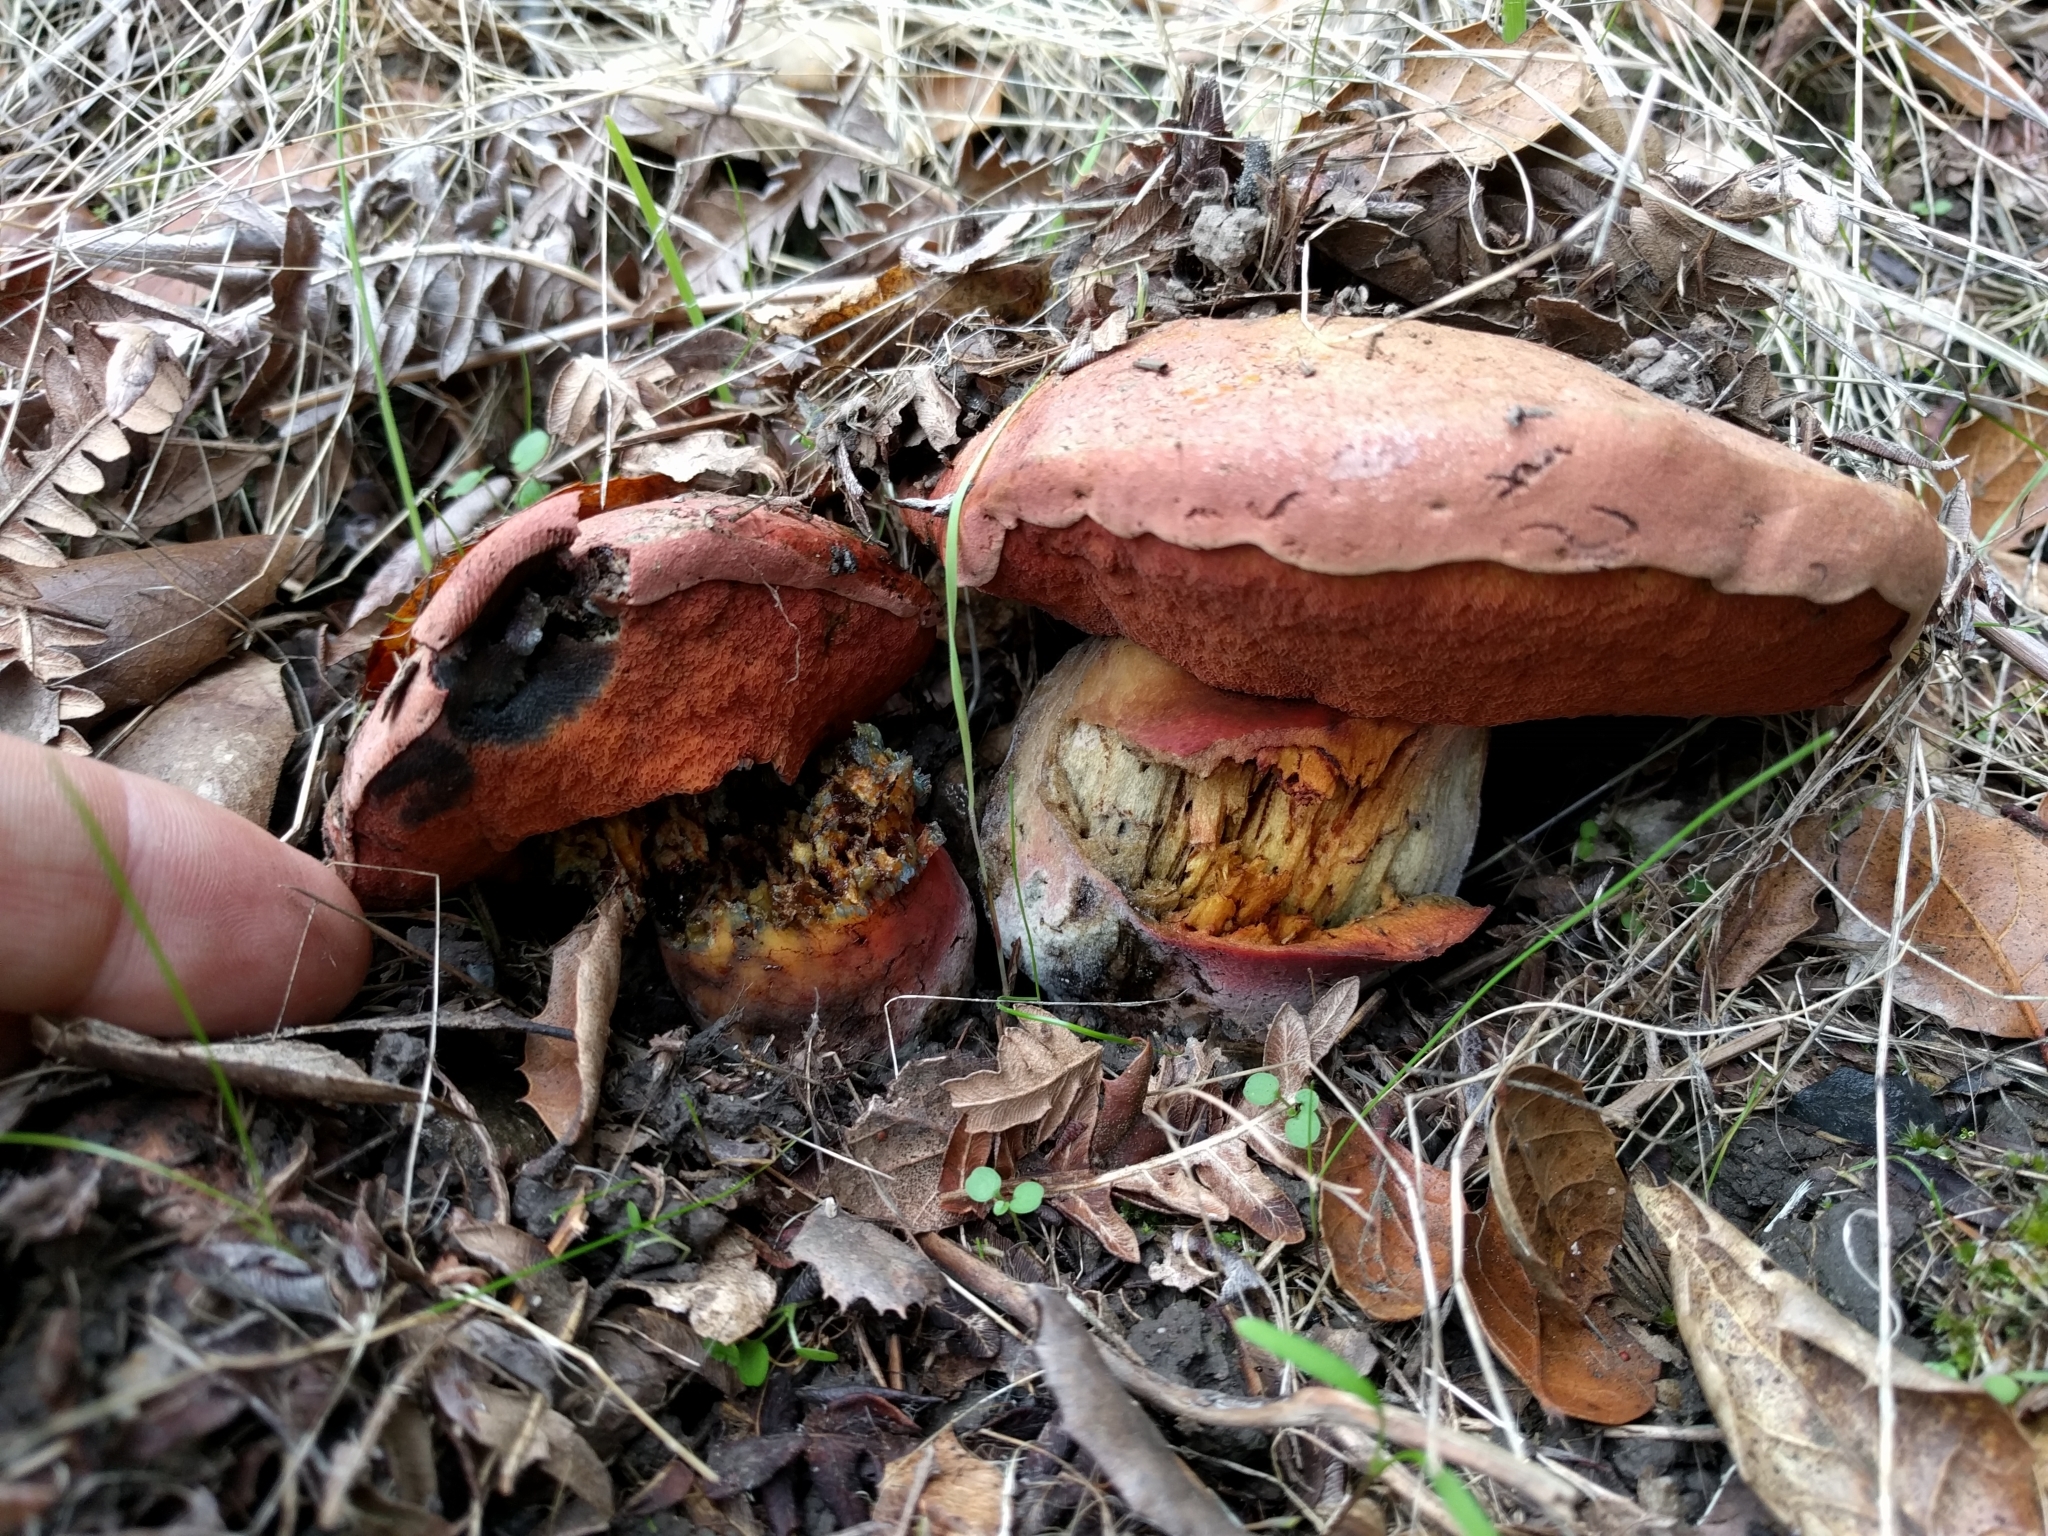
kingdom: Fungi
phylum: Basidiomycota
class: Agaricomycetes
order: Boletales
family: Boletaceae
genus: Suillellus
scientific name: Suillellus amygdalinus
